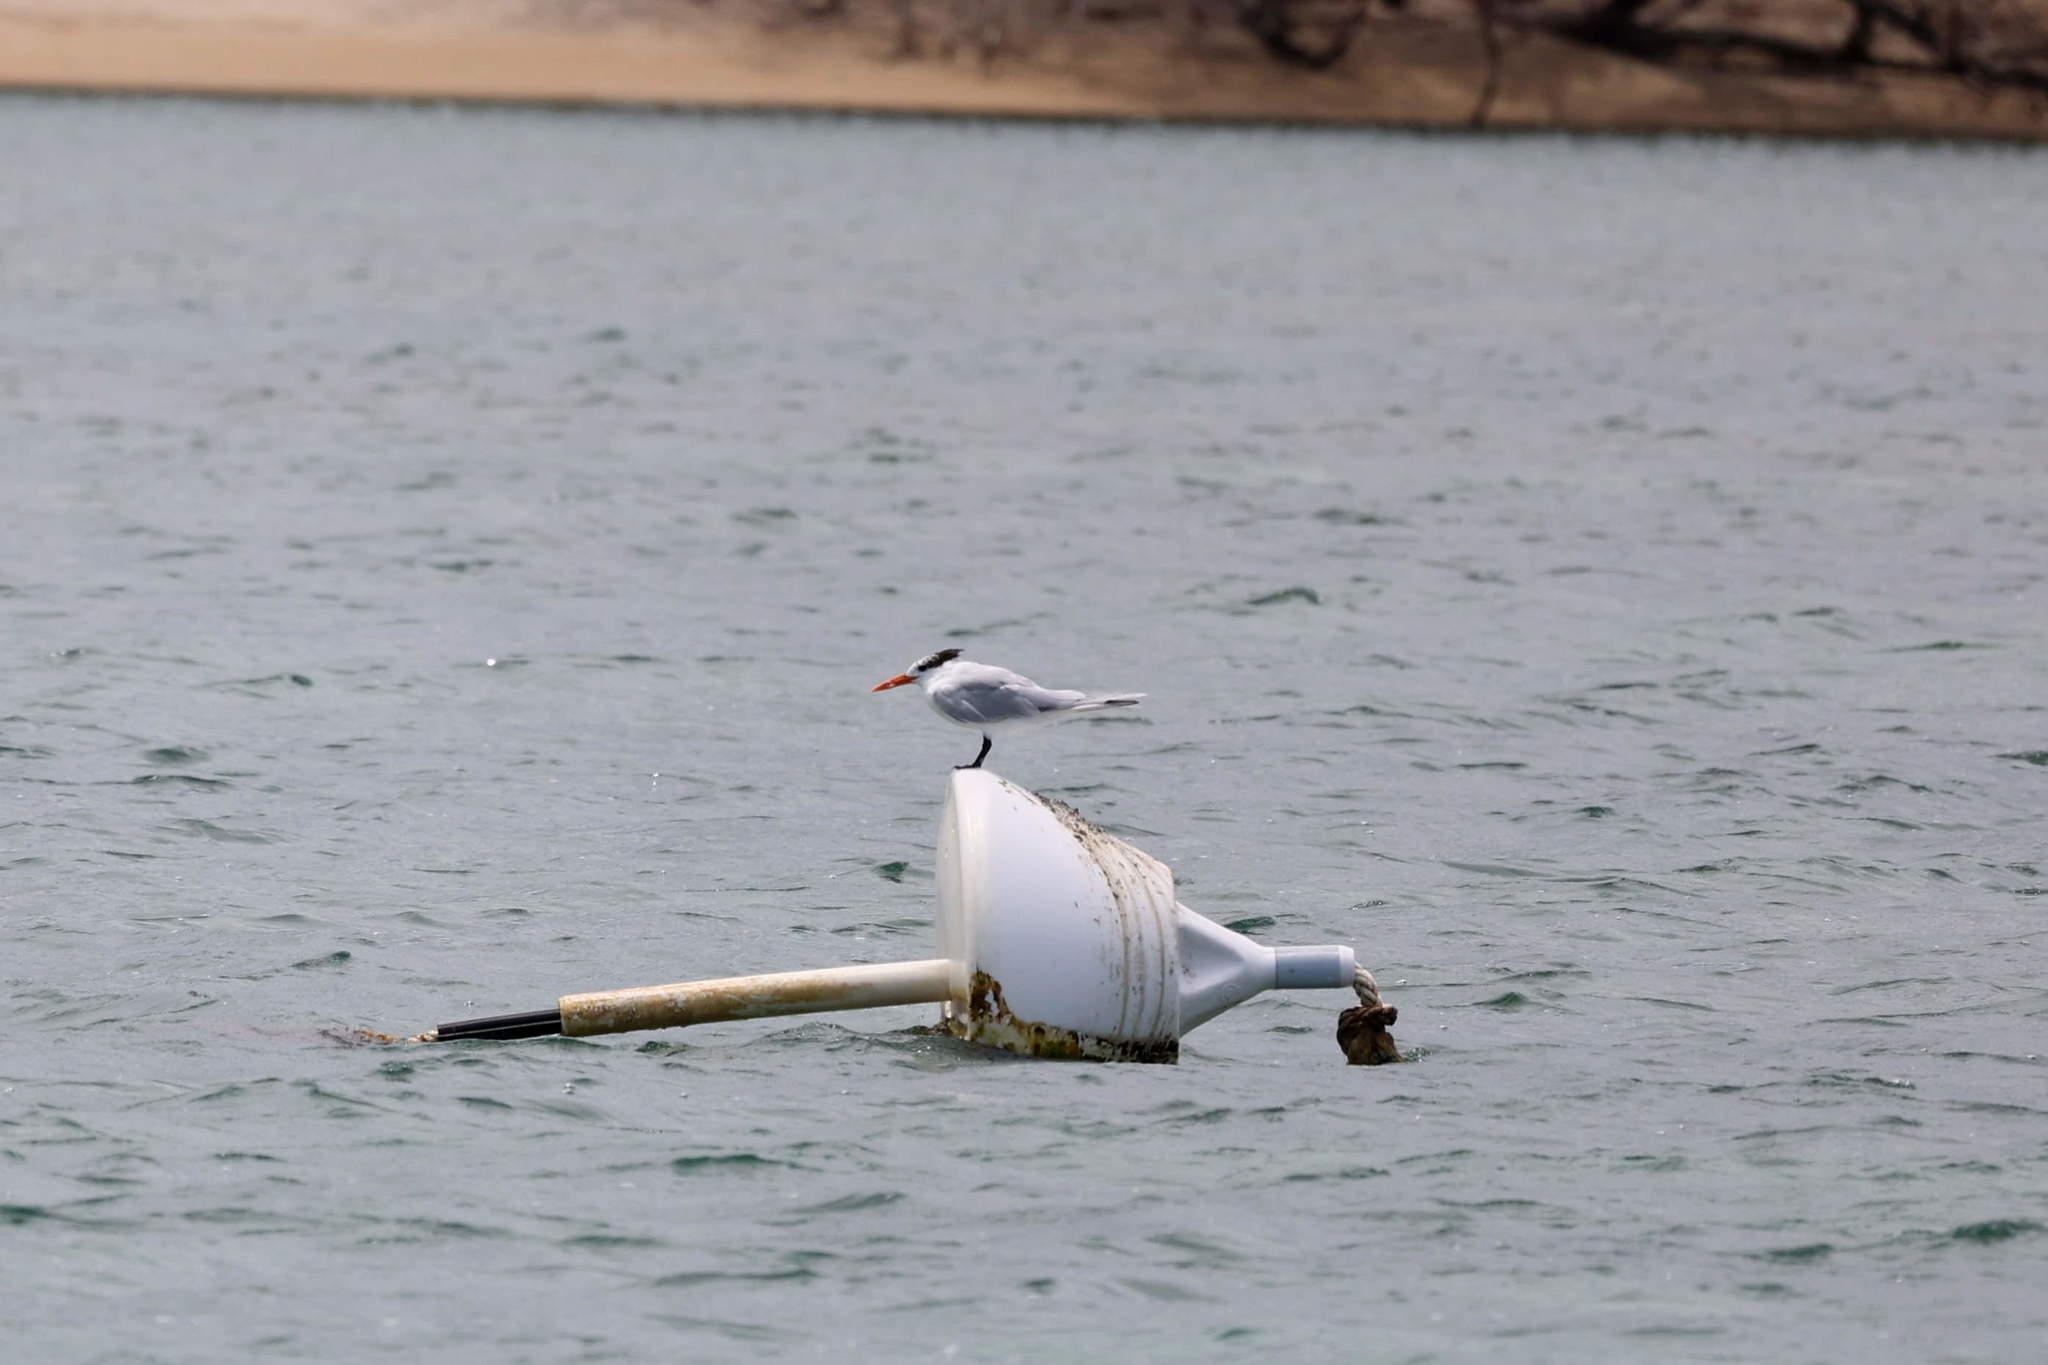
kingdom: Animalia
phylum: Chordata
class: Aves
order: Charadriiformes
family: Laridae
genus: Thalasseus
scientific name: Thalasseus maximus
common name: Royal tern
